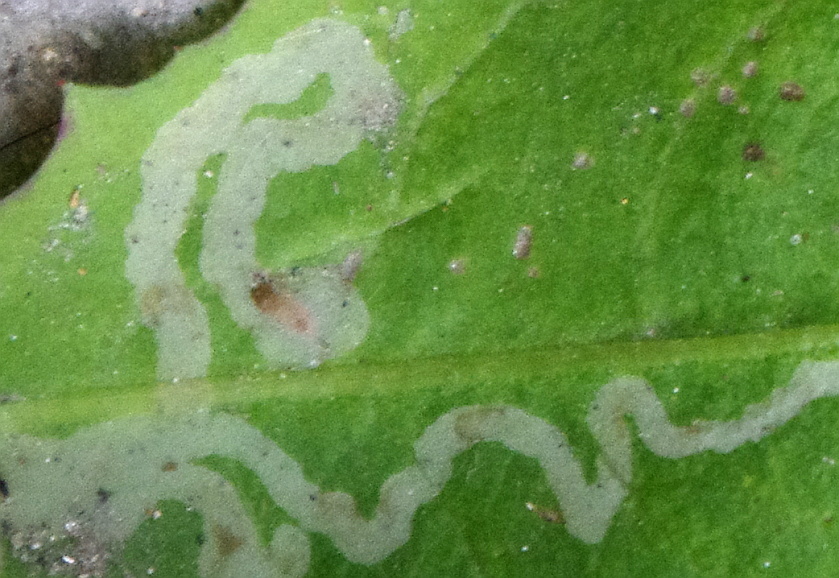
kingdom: Animalia
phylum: Arthropoda
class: Insecta
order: Diptera
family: Agromyzidae
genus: Phytomyza
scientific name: Phytomyza
